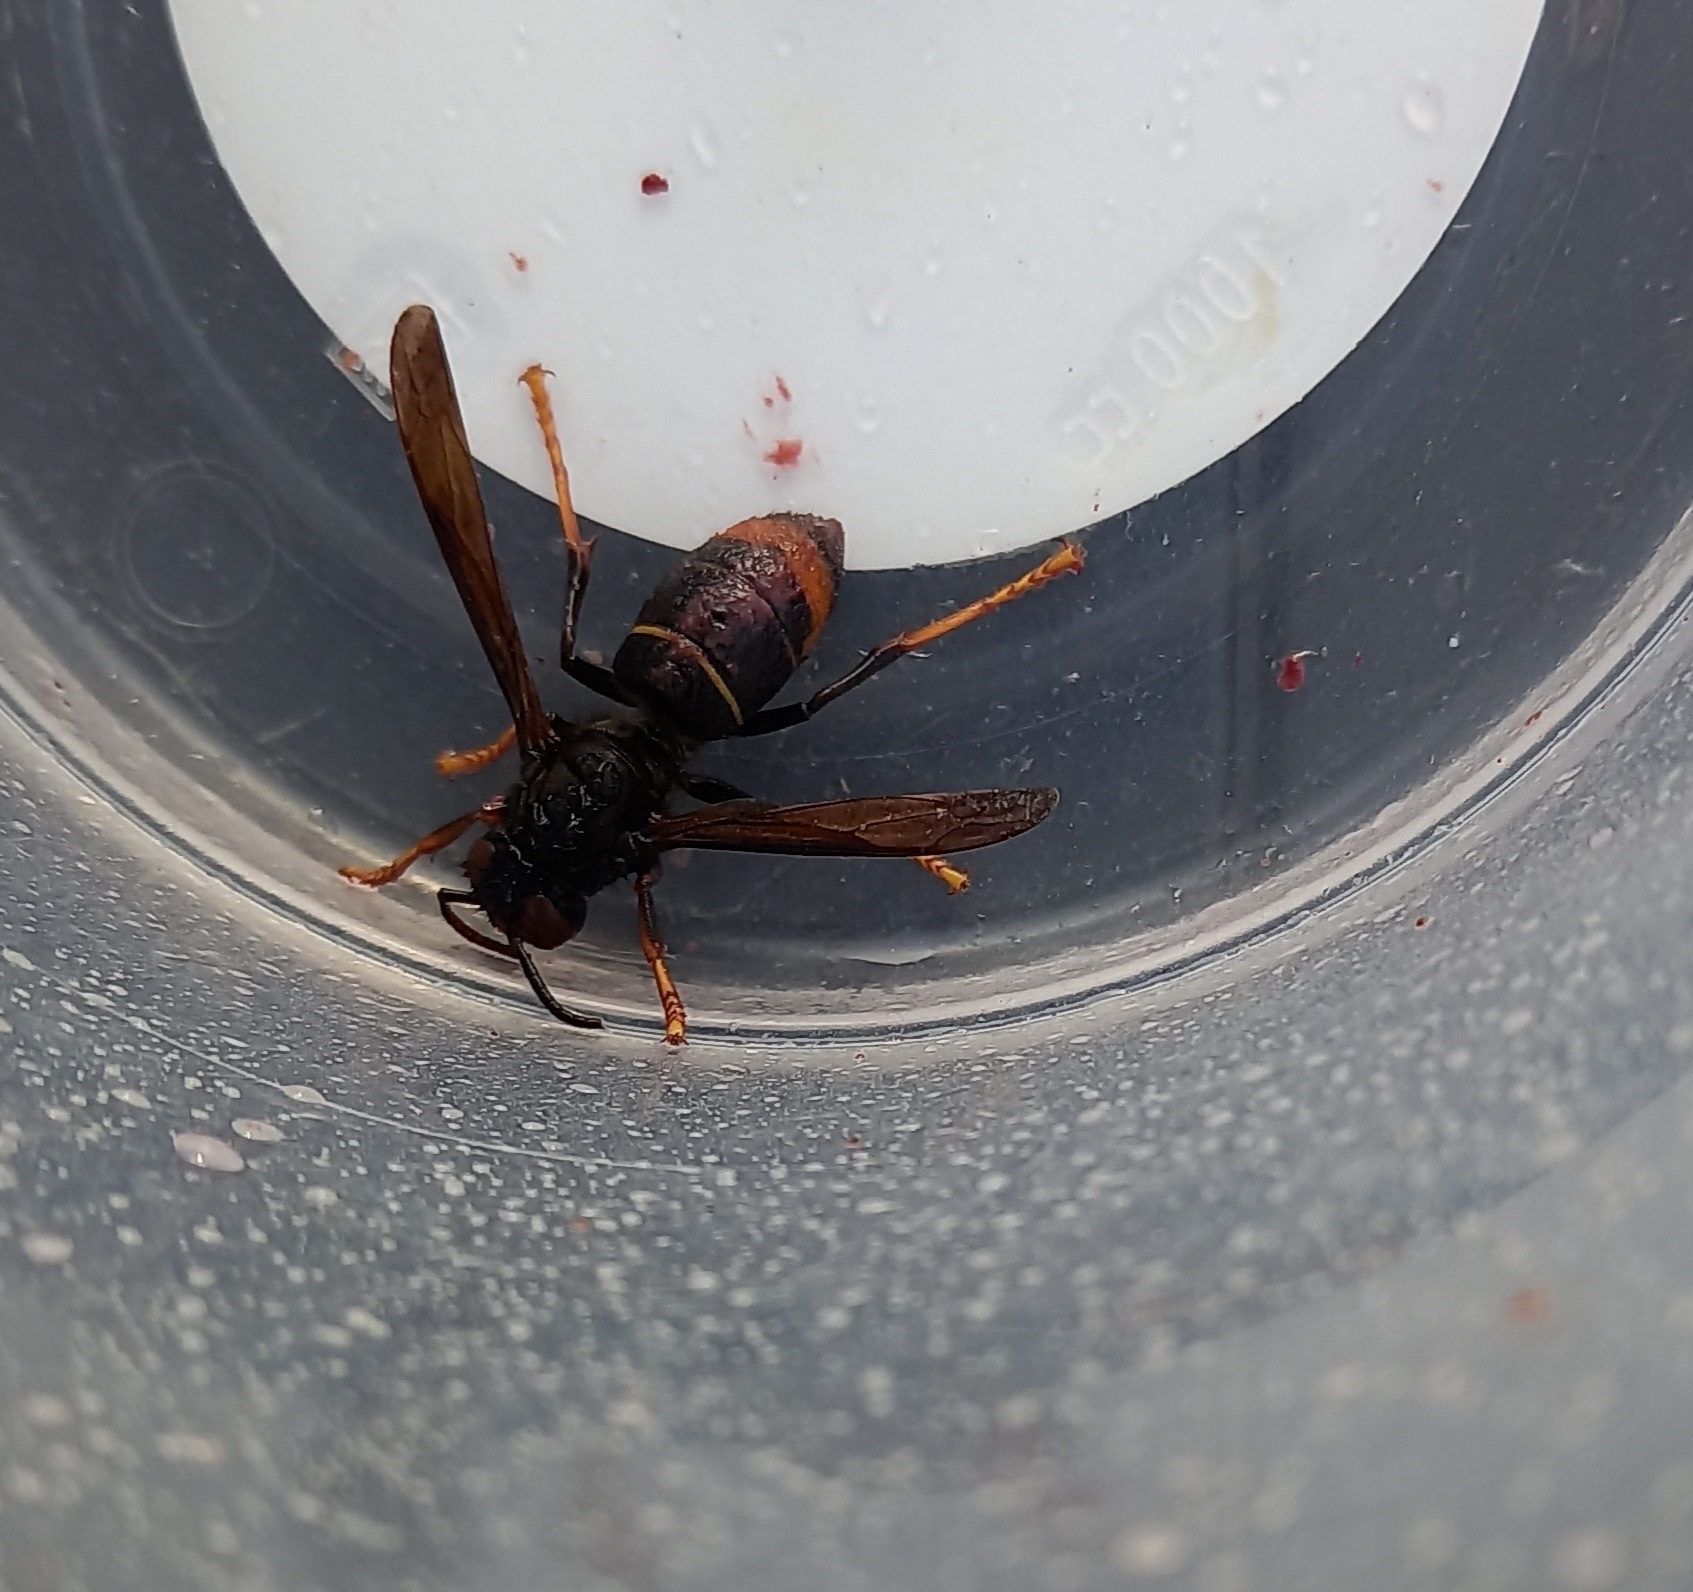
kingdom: Animalia
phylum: Arthropoda
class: Insecta
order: Hymenoptera
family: Vespidae
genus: Vespa
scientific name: Vespa velutina
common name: Asian hornet
